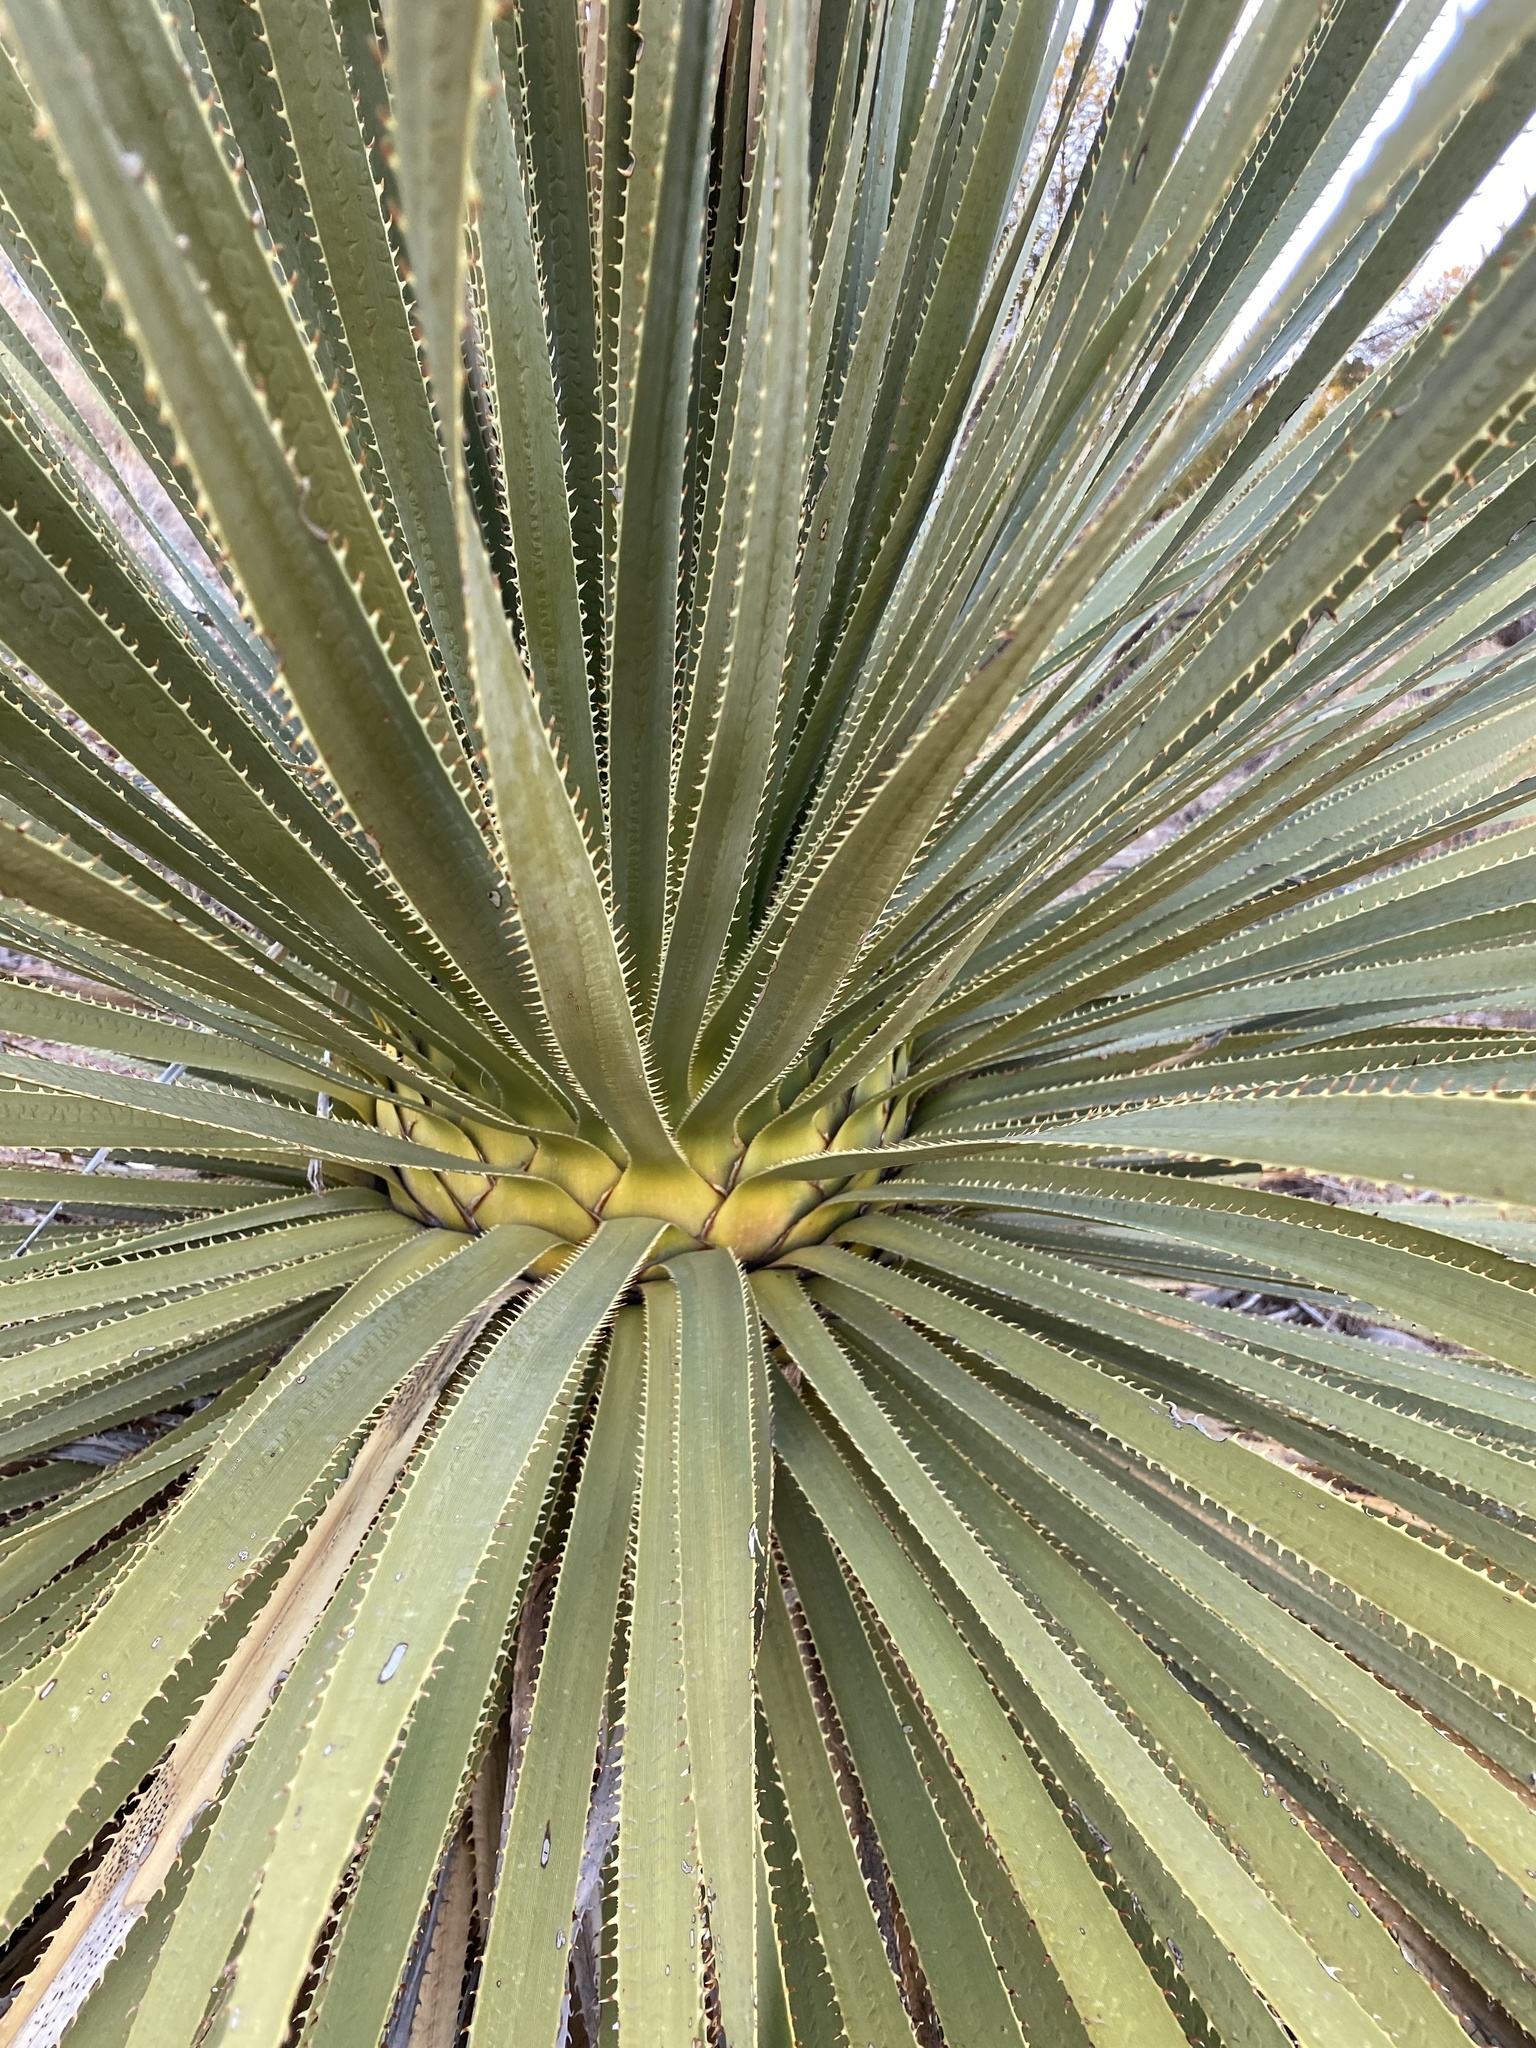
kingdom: Plantae
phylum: Tracheophyta
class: Liliopsida
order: Asparagales
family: Asparagaceae
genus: Dasylirion
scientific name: Dasylirion wheeleri
